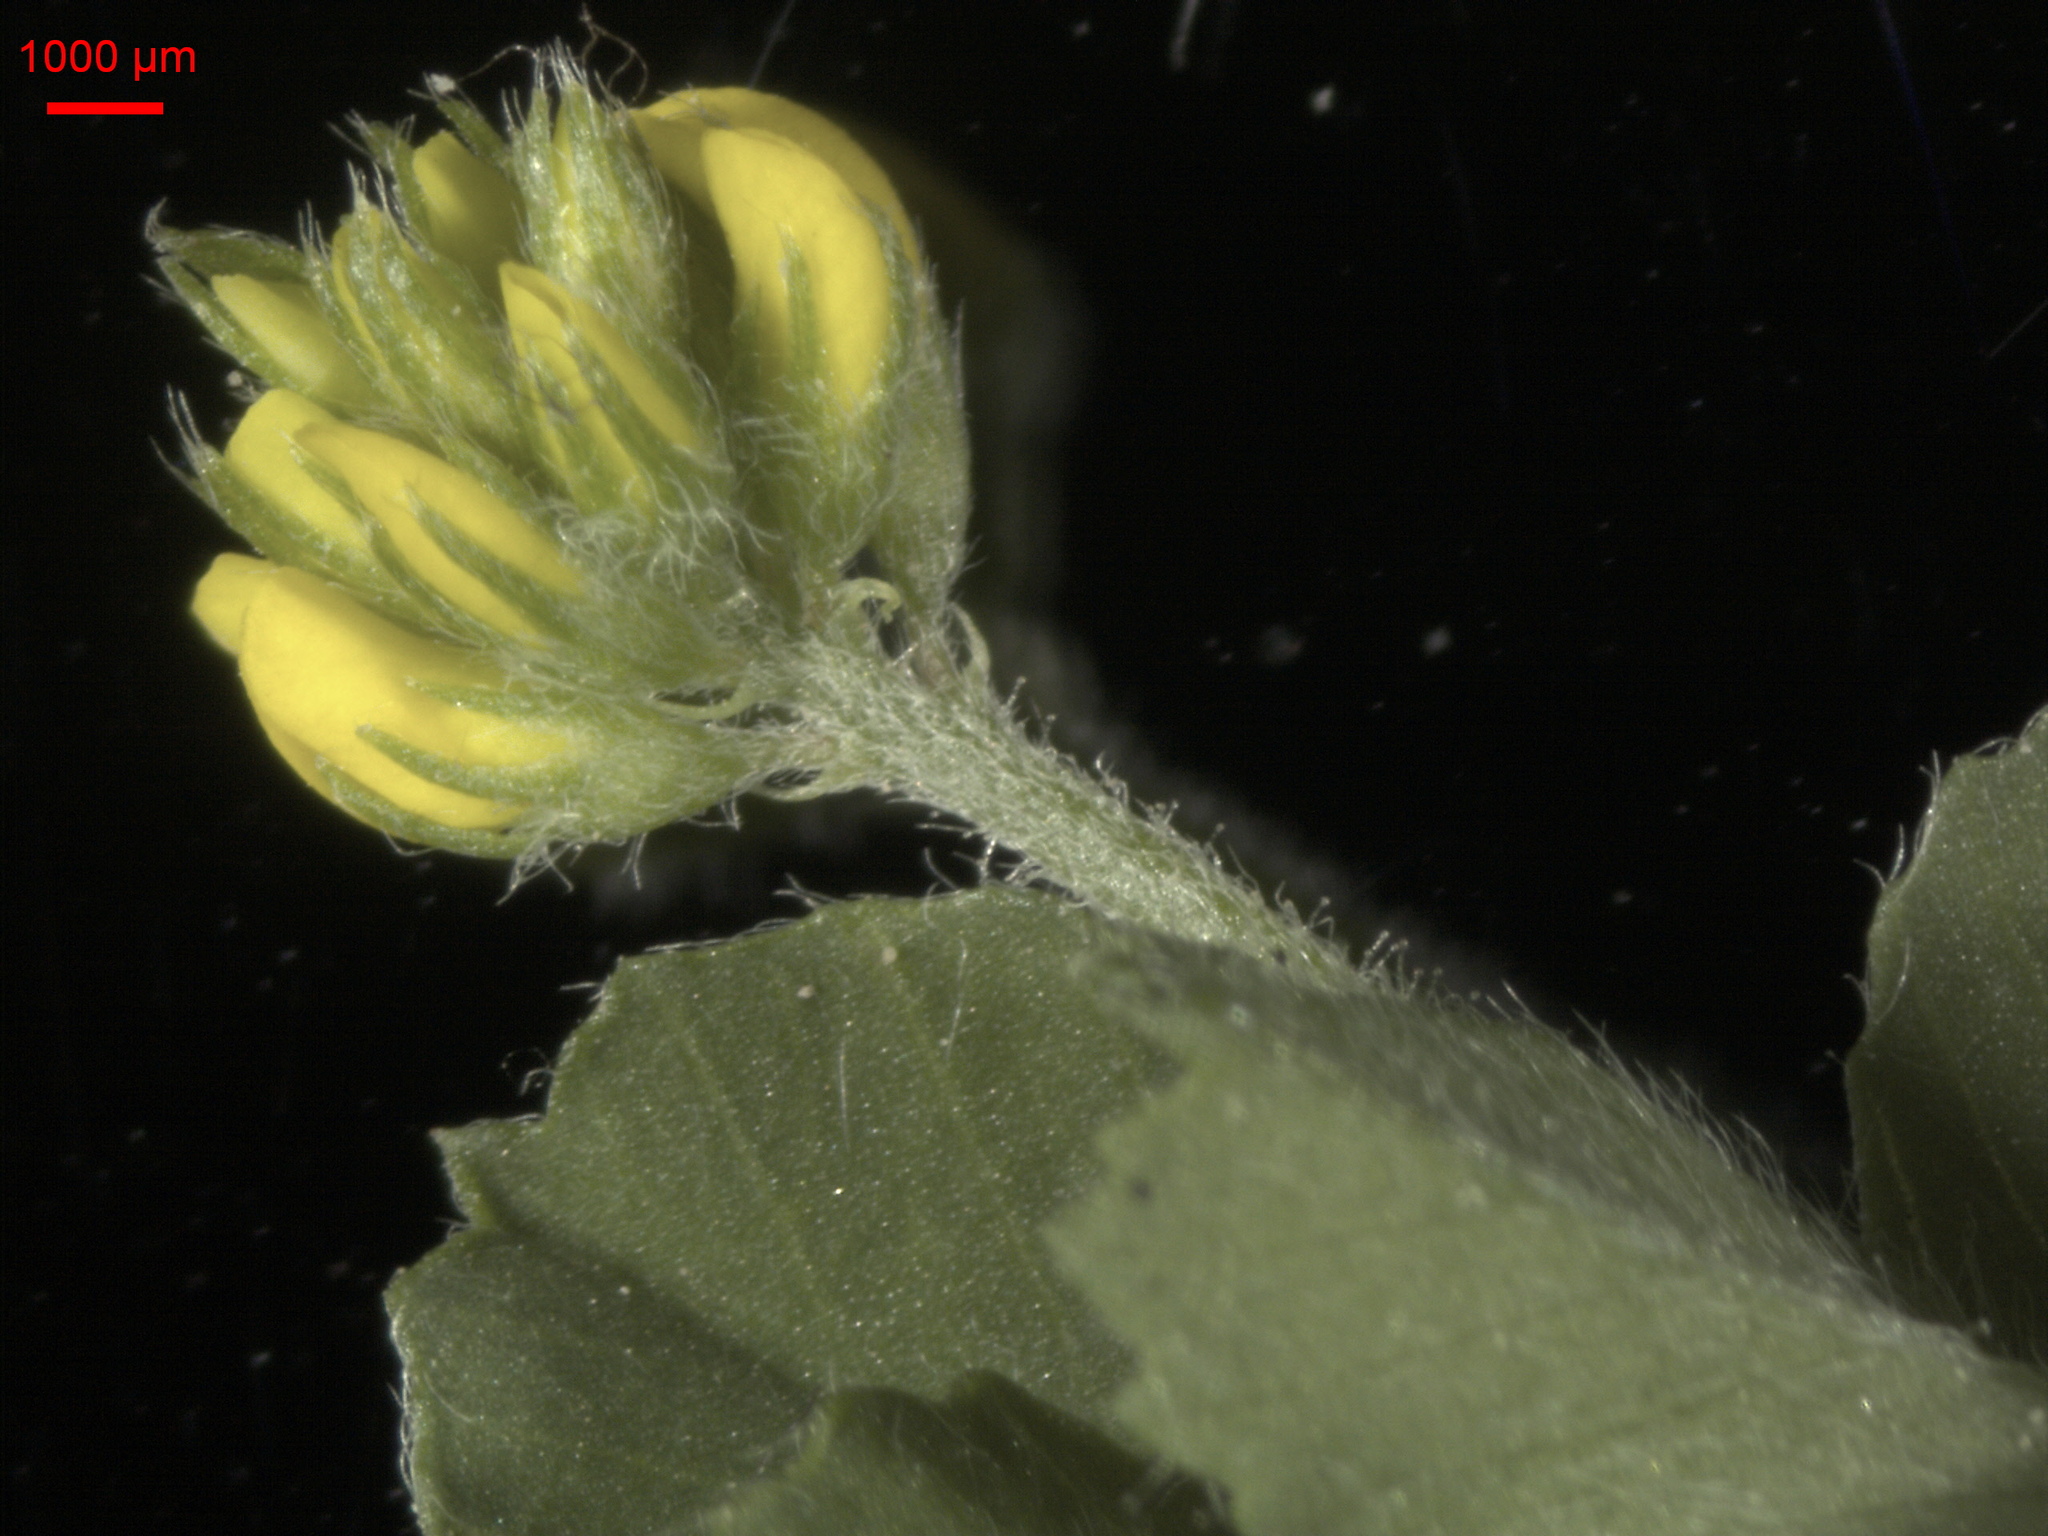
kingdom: Plantae
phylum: Tracheophyta
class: Magnoliopsida
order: Fabales
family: Fabaceae
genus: Medicago
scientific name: Medicago lupulina
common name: Black medick
